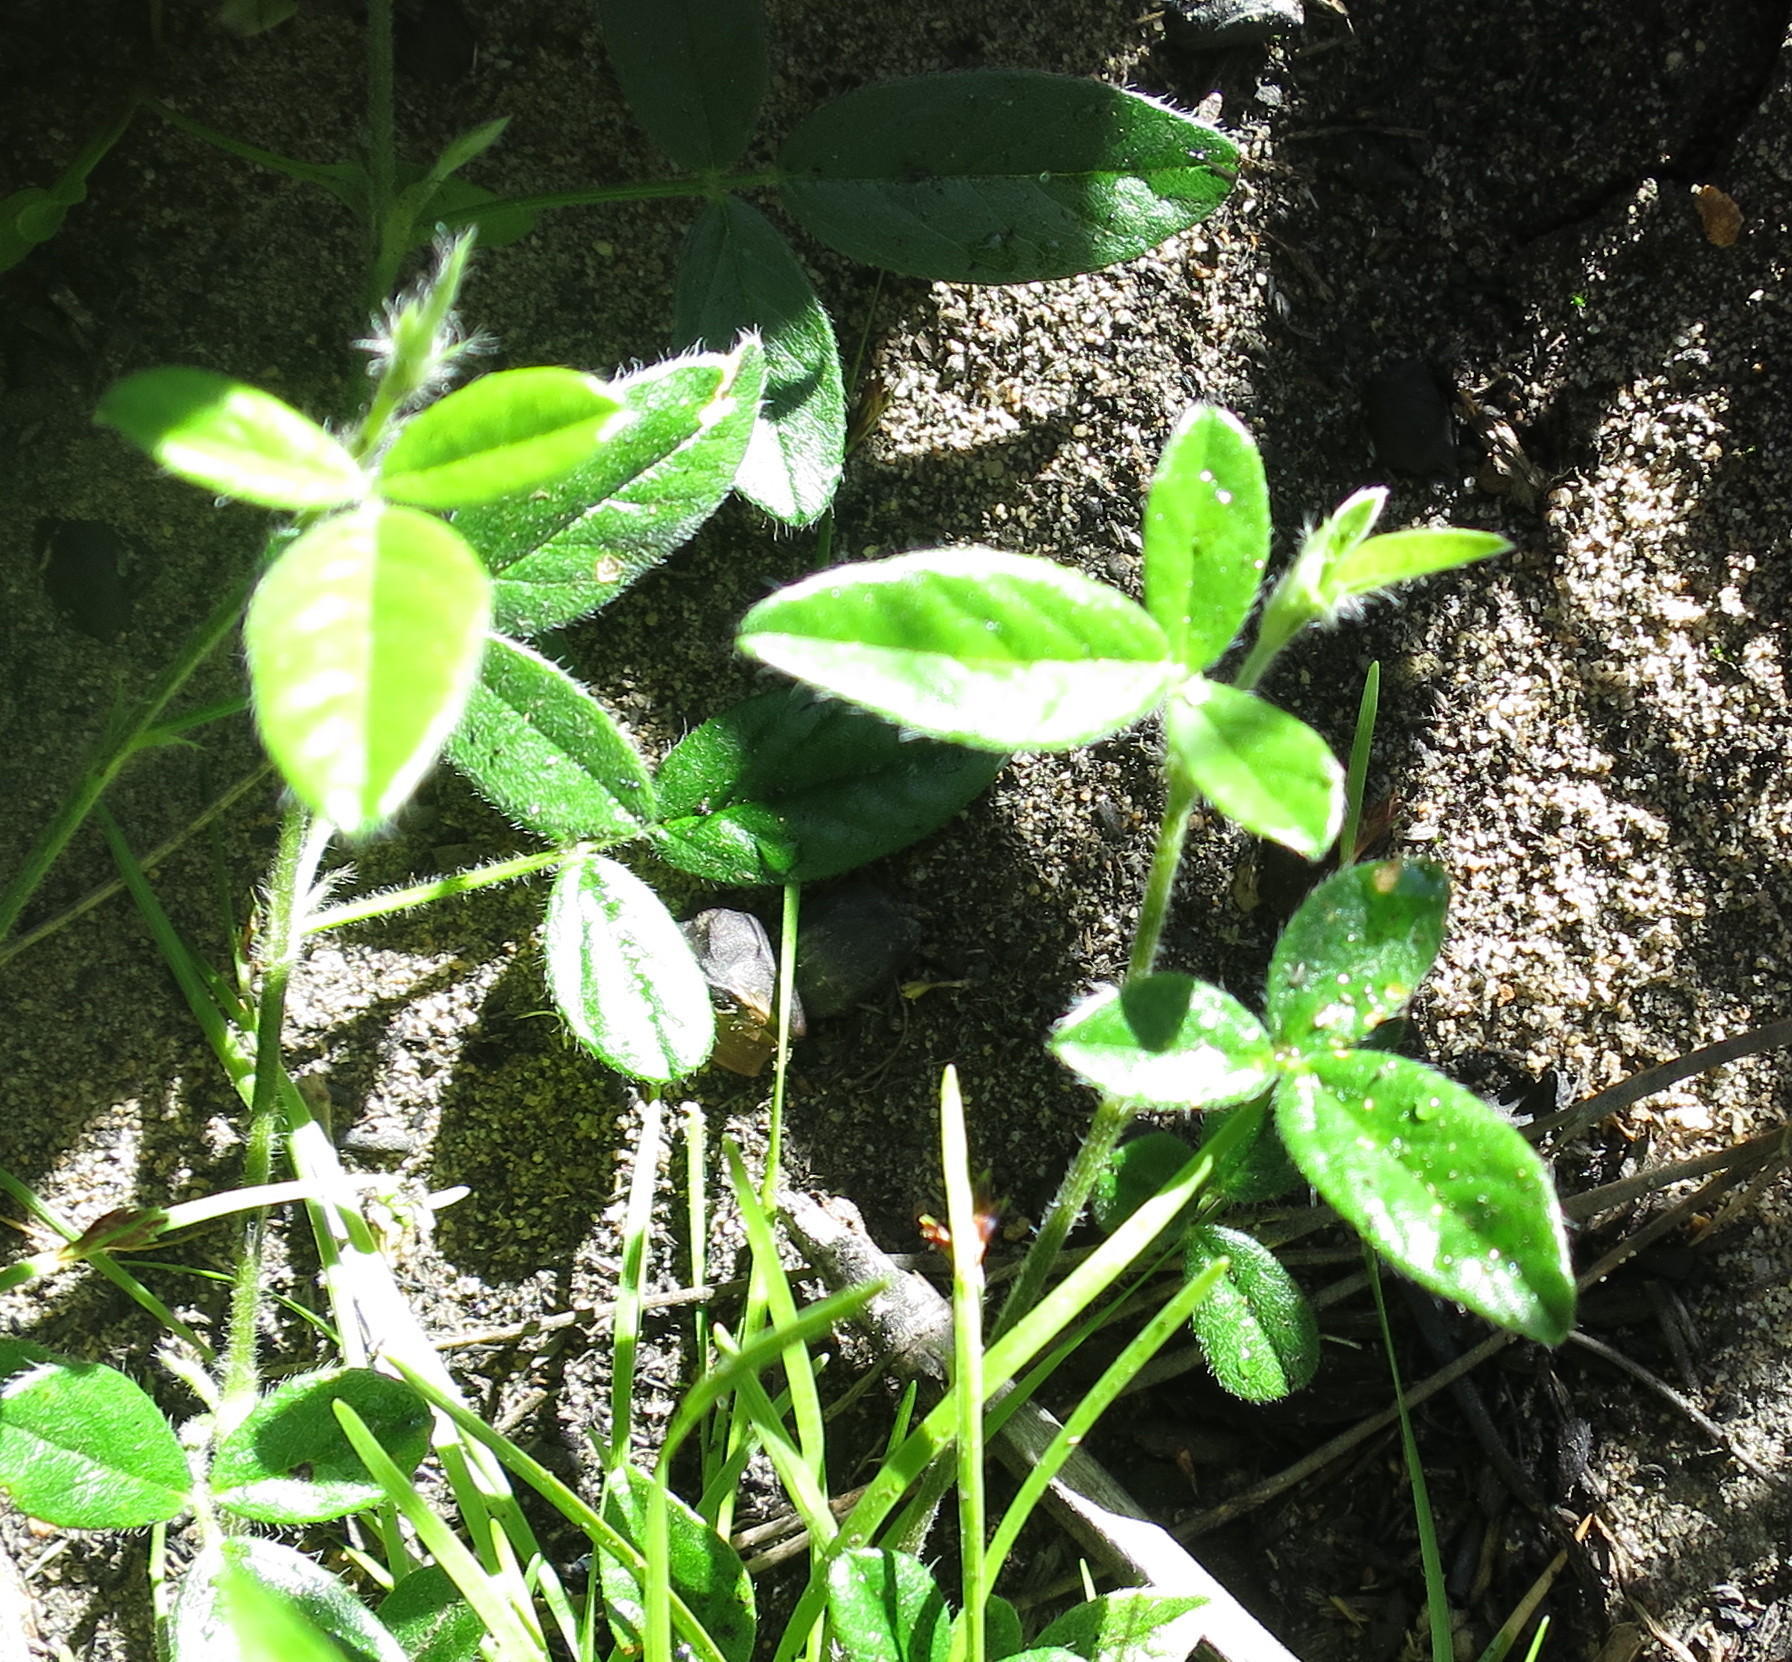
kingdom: Plantae
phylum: Tracheophyta
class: Magnoliopsida
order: Fabales
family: Fabaceae
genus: Psoralea
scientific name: Psoralea swartbergensis
